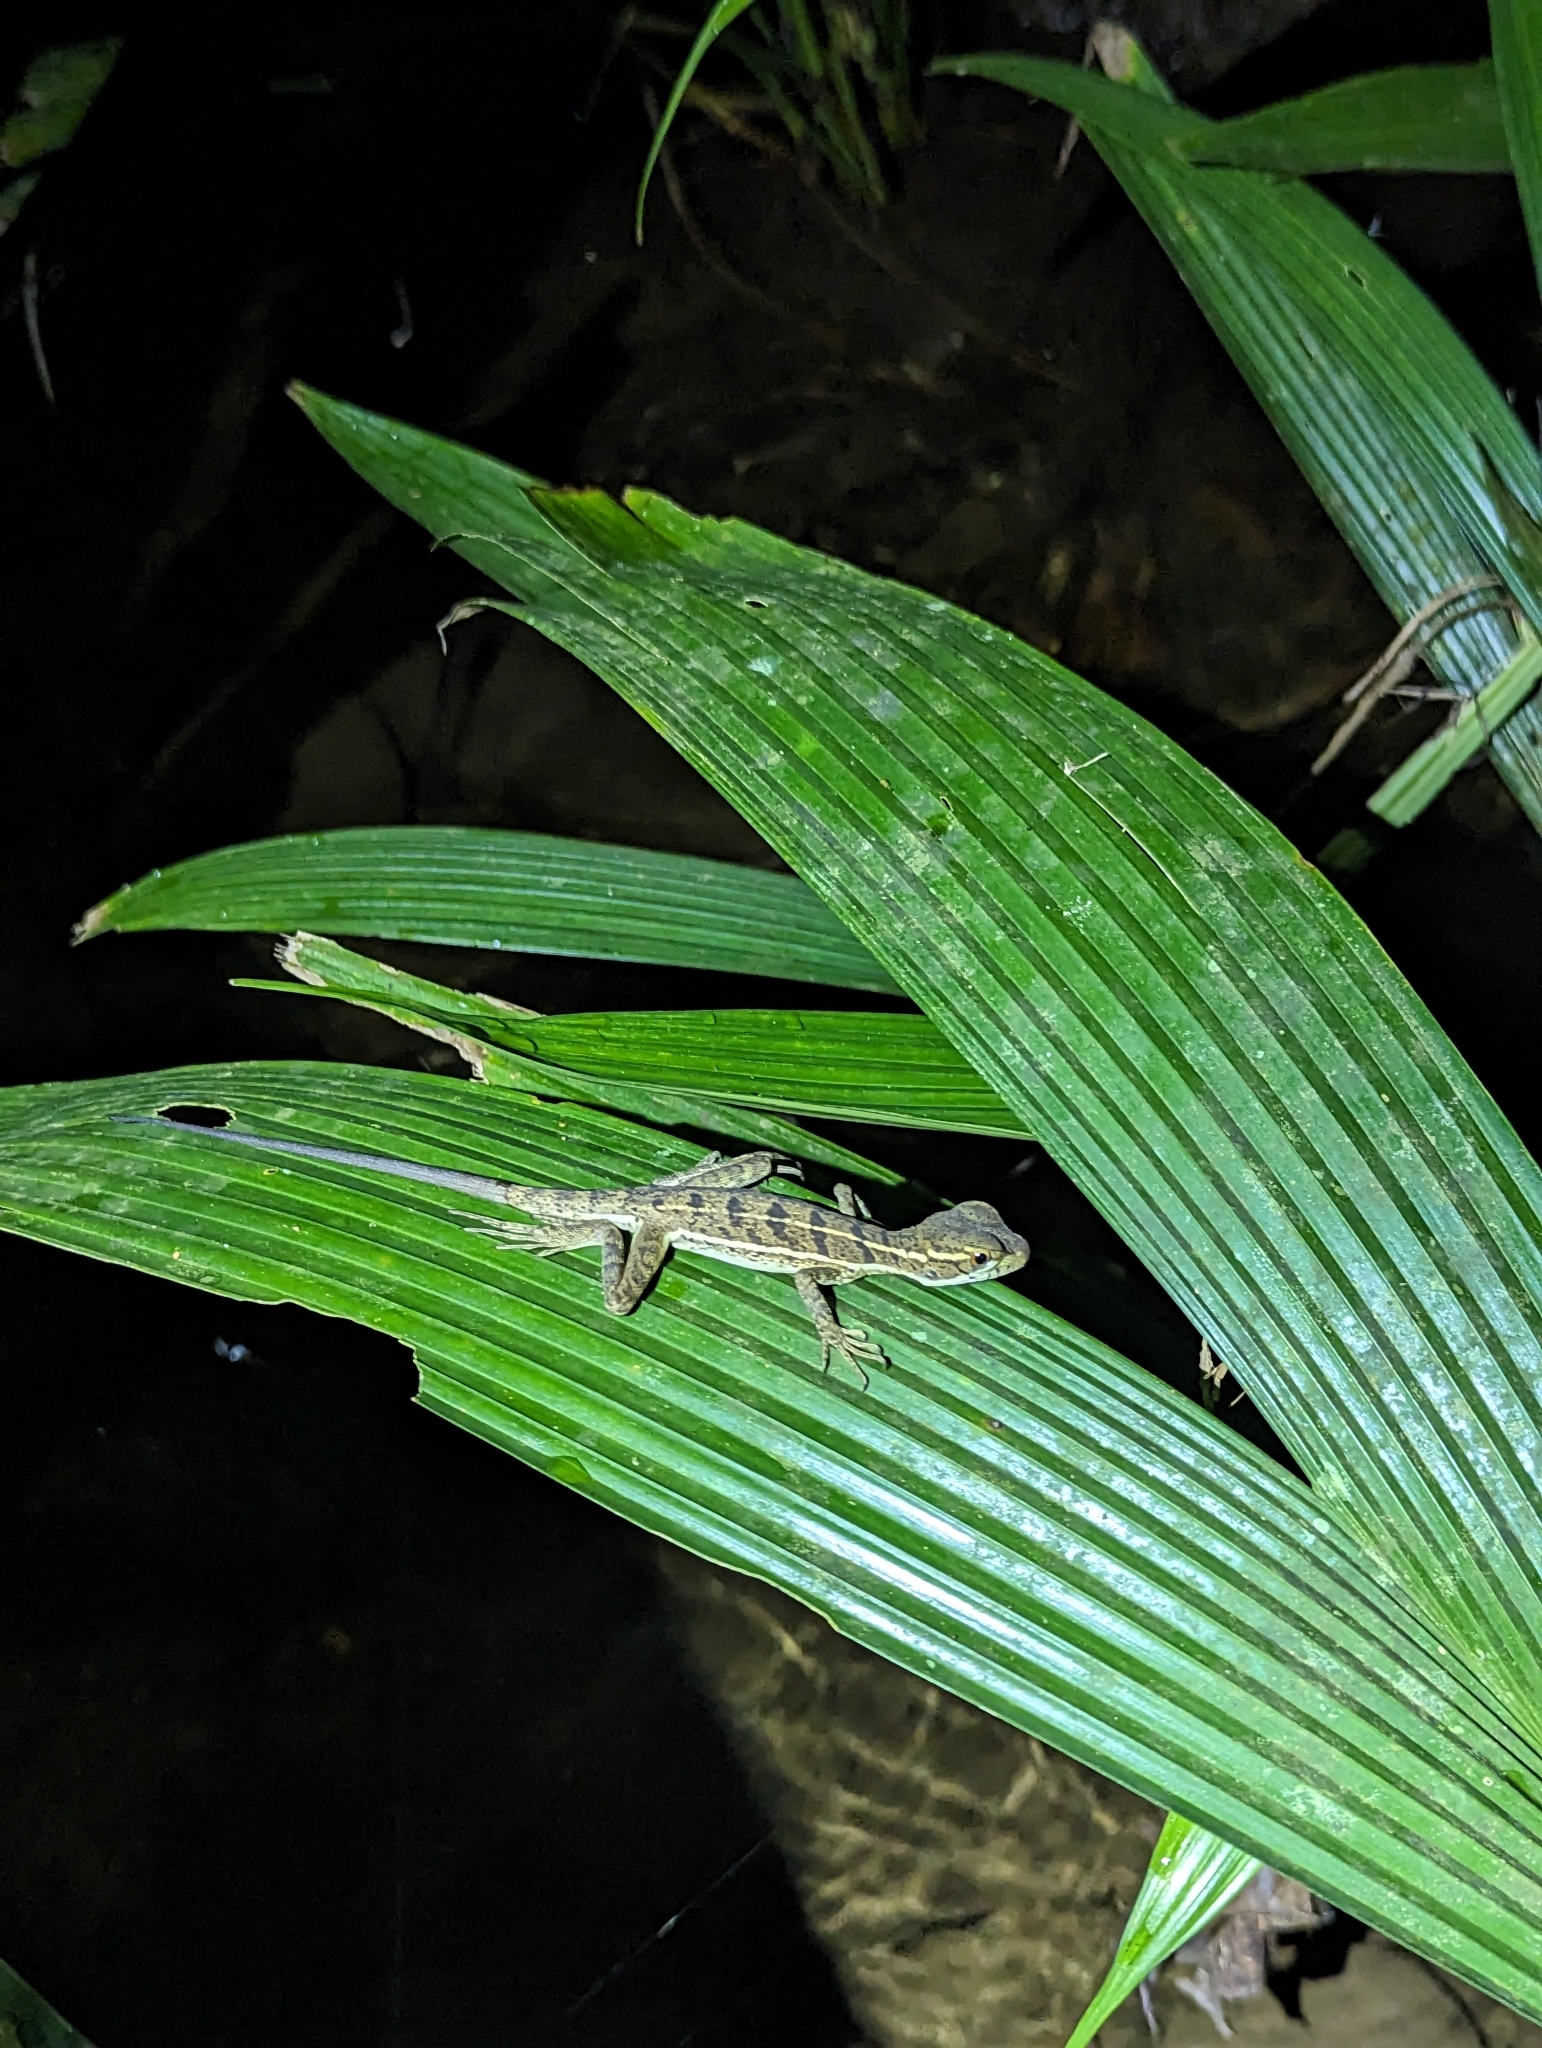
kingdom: Animalia
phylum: Chordata
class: Squamata
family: Corytophanidae
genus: Basiliscus
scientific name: Basiliscus basiliscus
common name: Common basilisk
